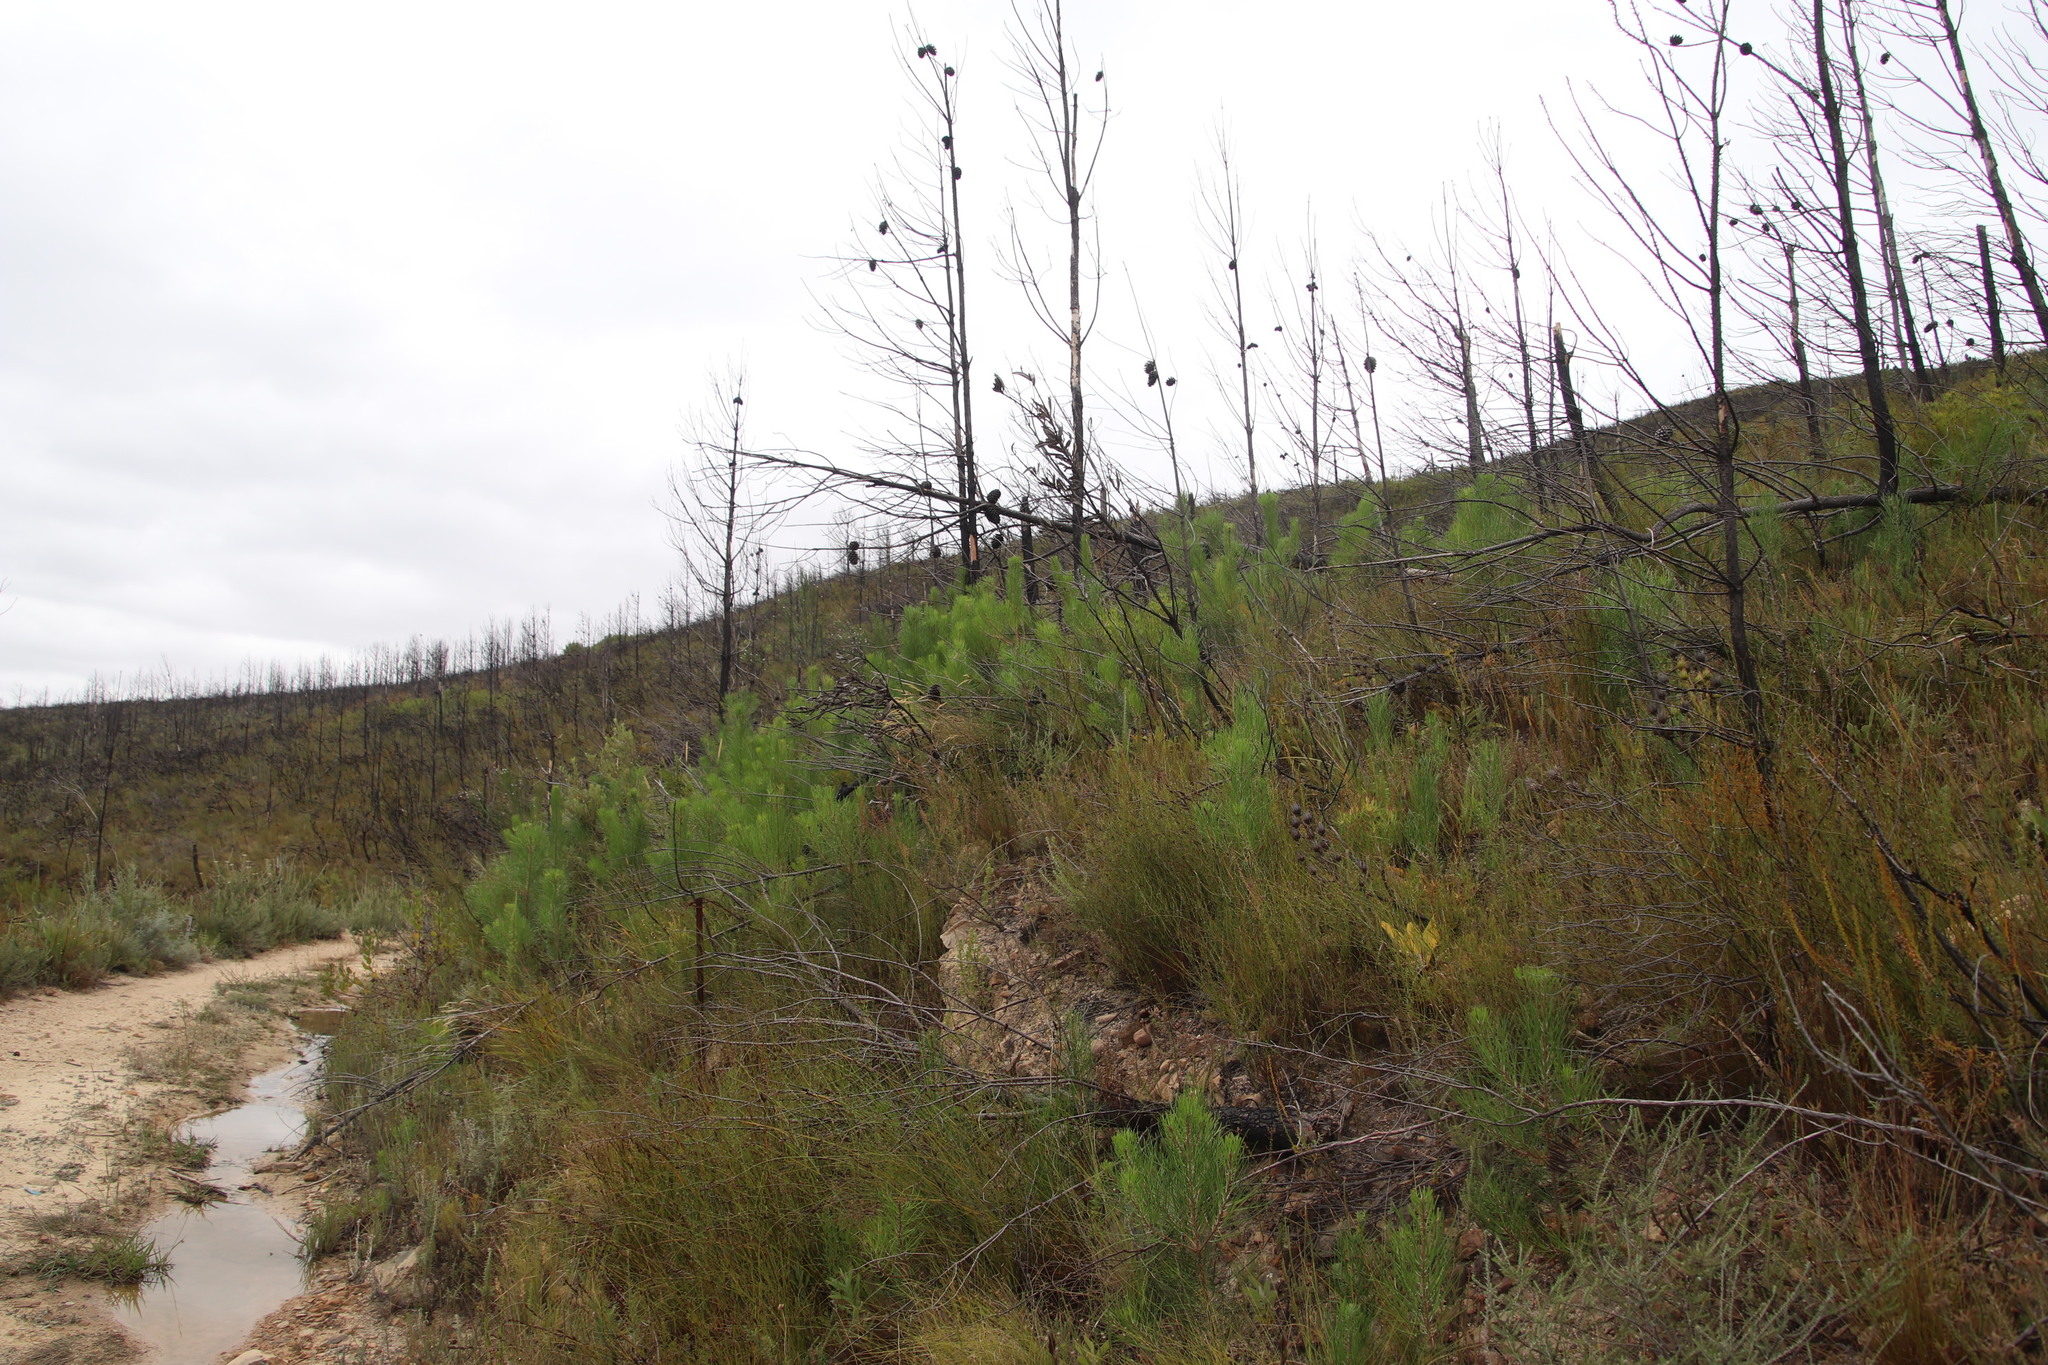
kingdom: Plantae
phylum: Tracheophyta
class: Pinopsida
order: Pinales
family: Pinaceae
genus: Pinus
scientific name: Pinus pinaster
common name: Maritime pine
